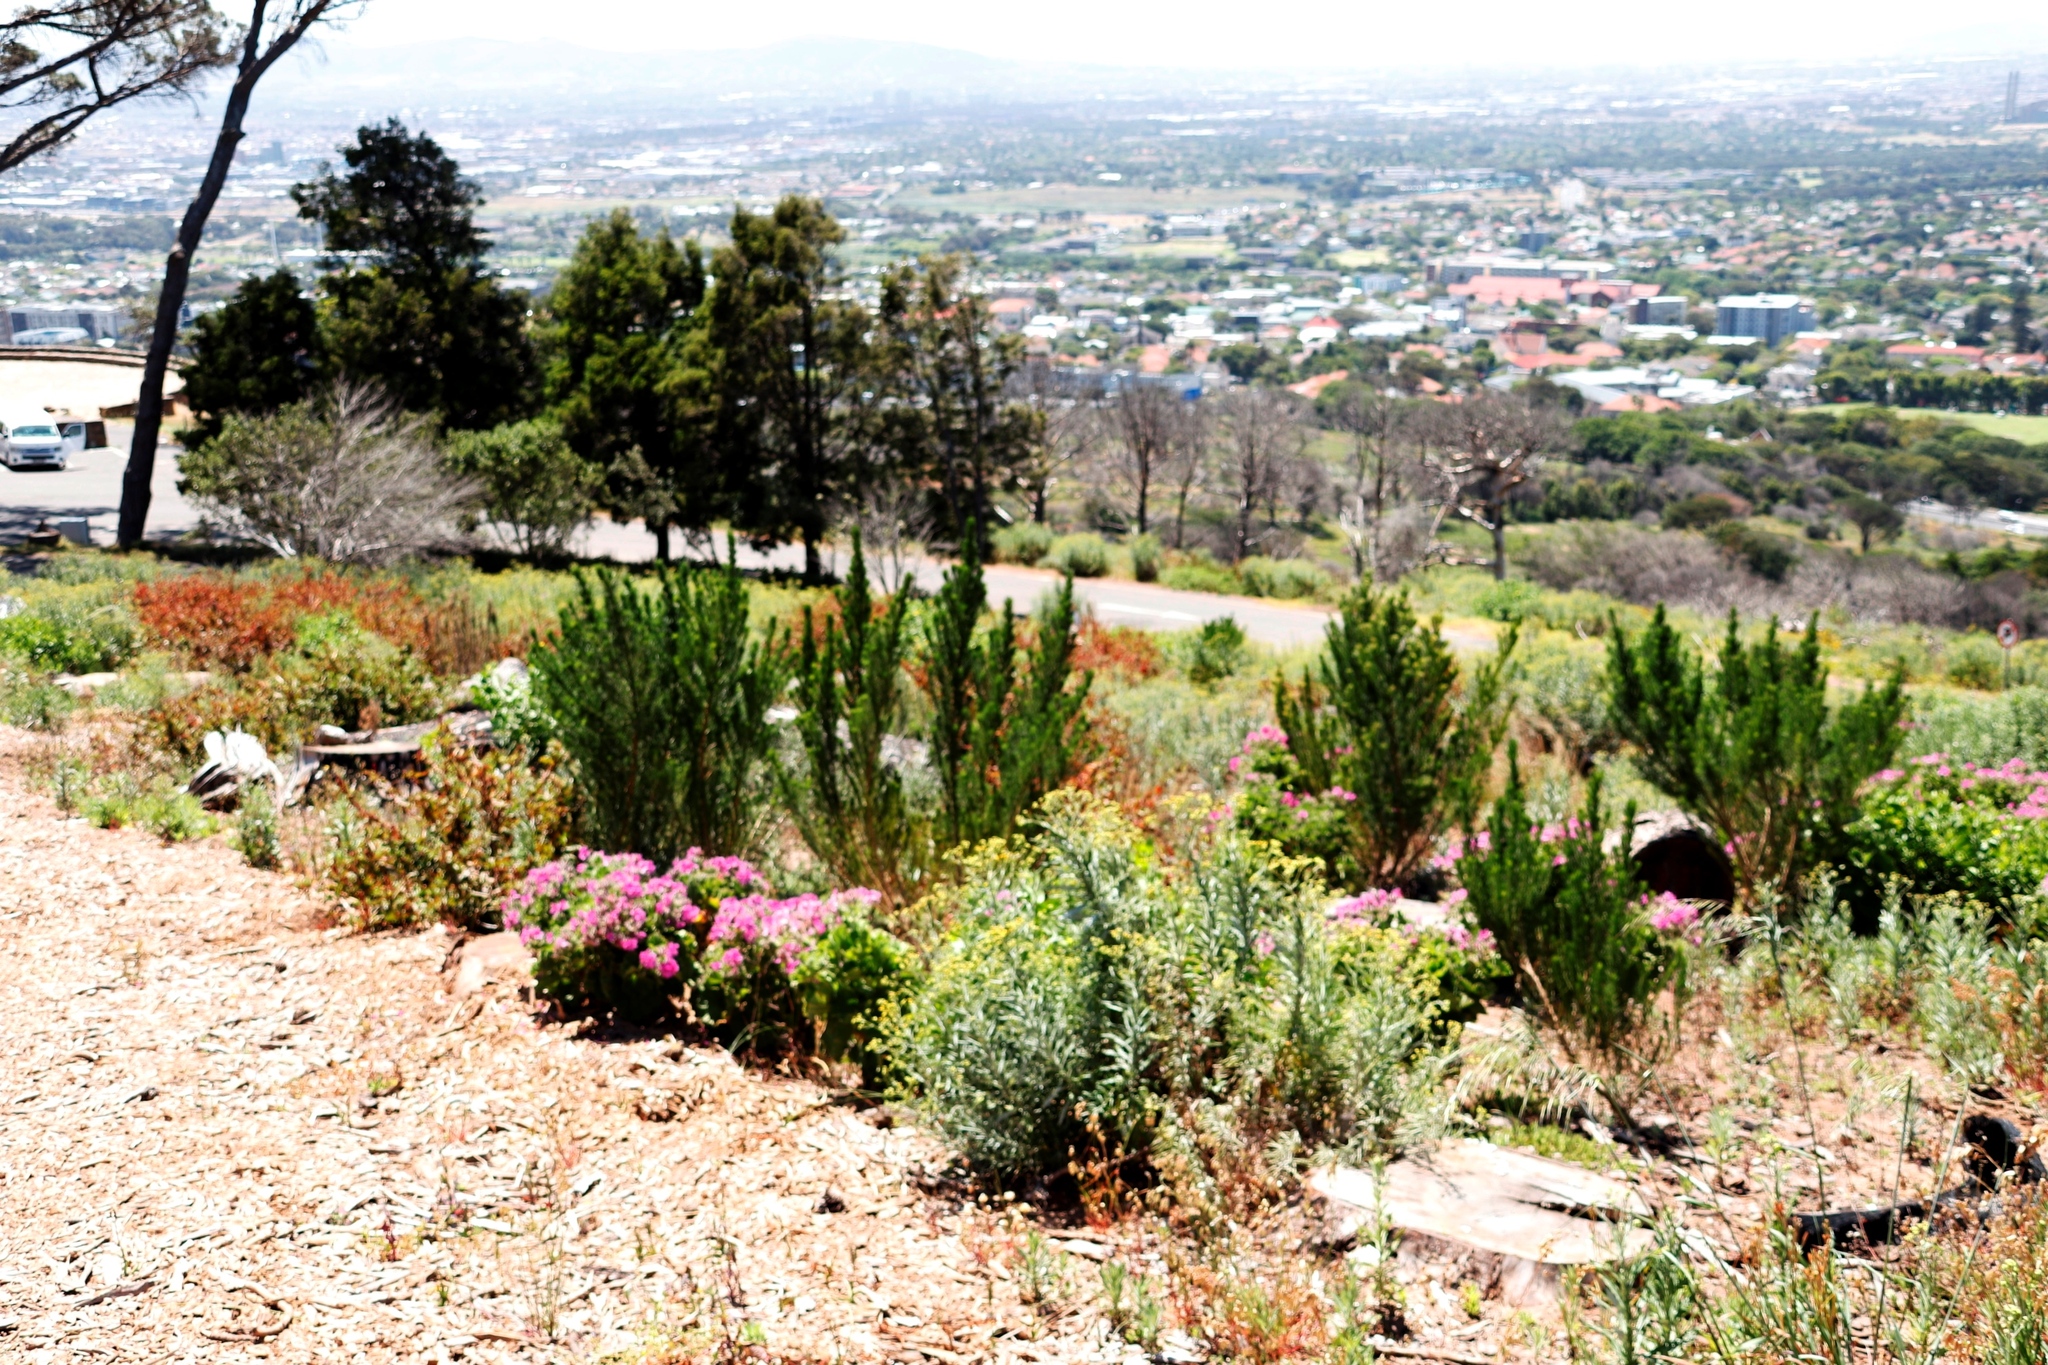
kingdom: Plantae
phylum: Tracheophyta
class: Magnoliopsida
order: Fabales
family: Fabaceae
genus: Psoralea
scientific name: Psoralea pinnata
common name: African scurfpea
